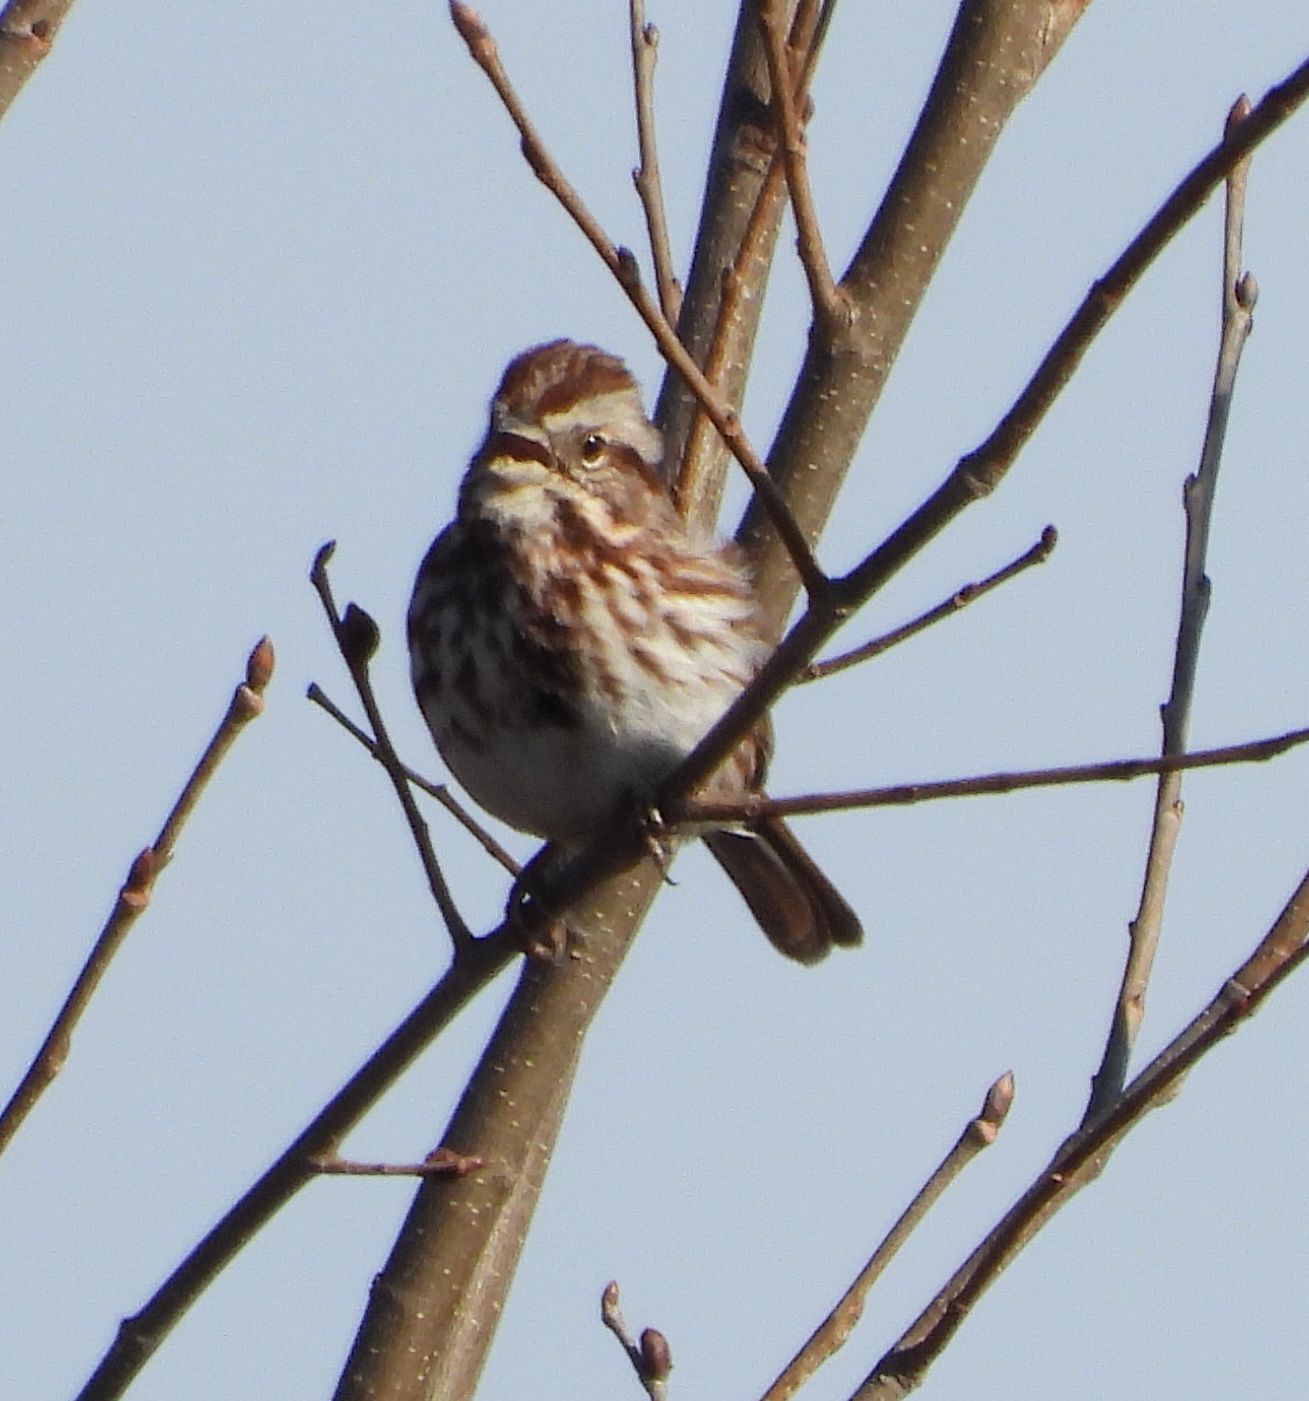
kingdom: Animalia
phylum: Chordata
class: Aves
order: Passeriformes
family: Passerellidae
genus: Melospiza
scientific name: Melospiza melodia
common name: Song sparrow
